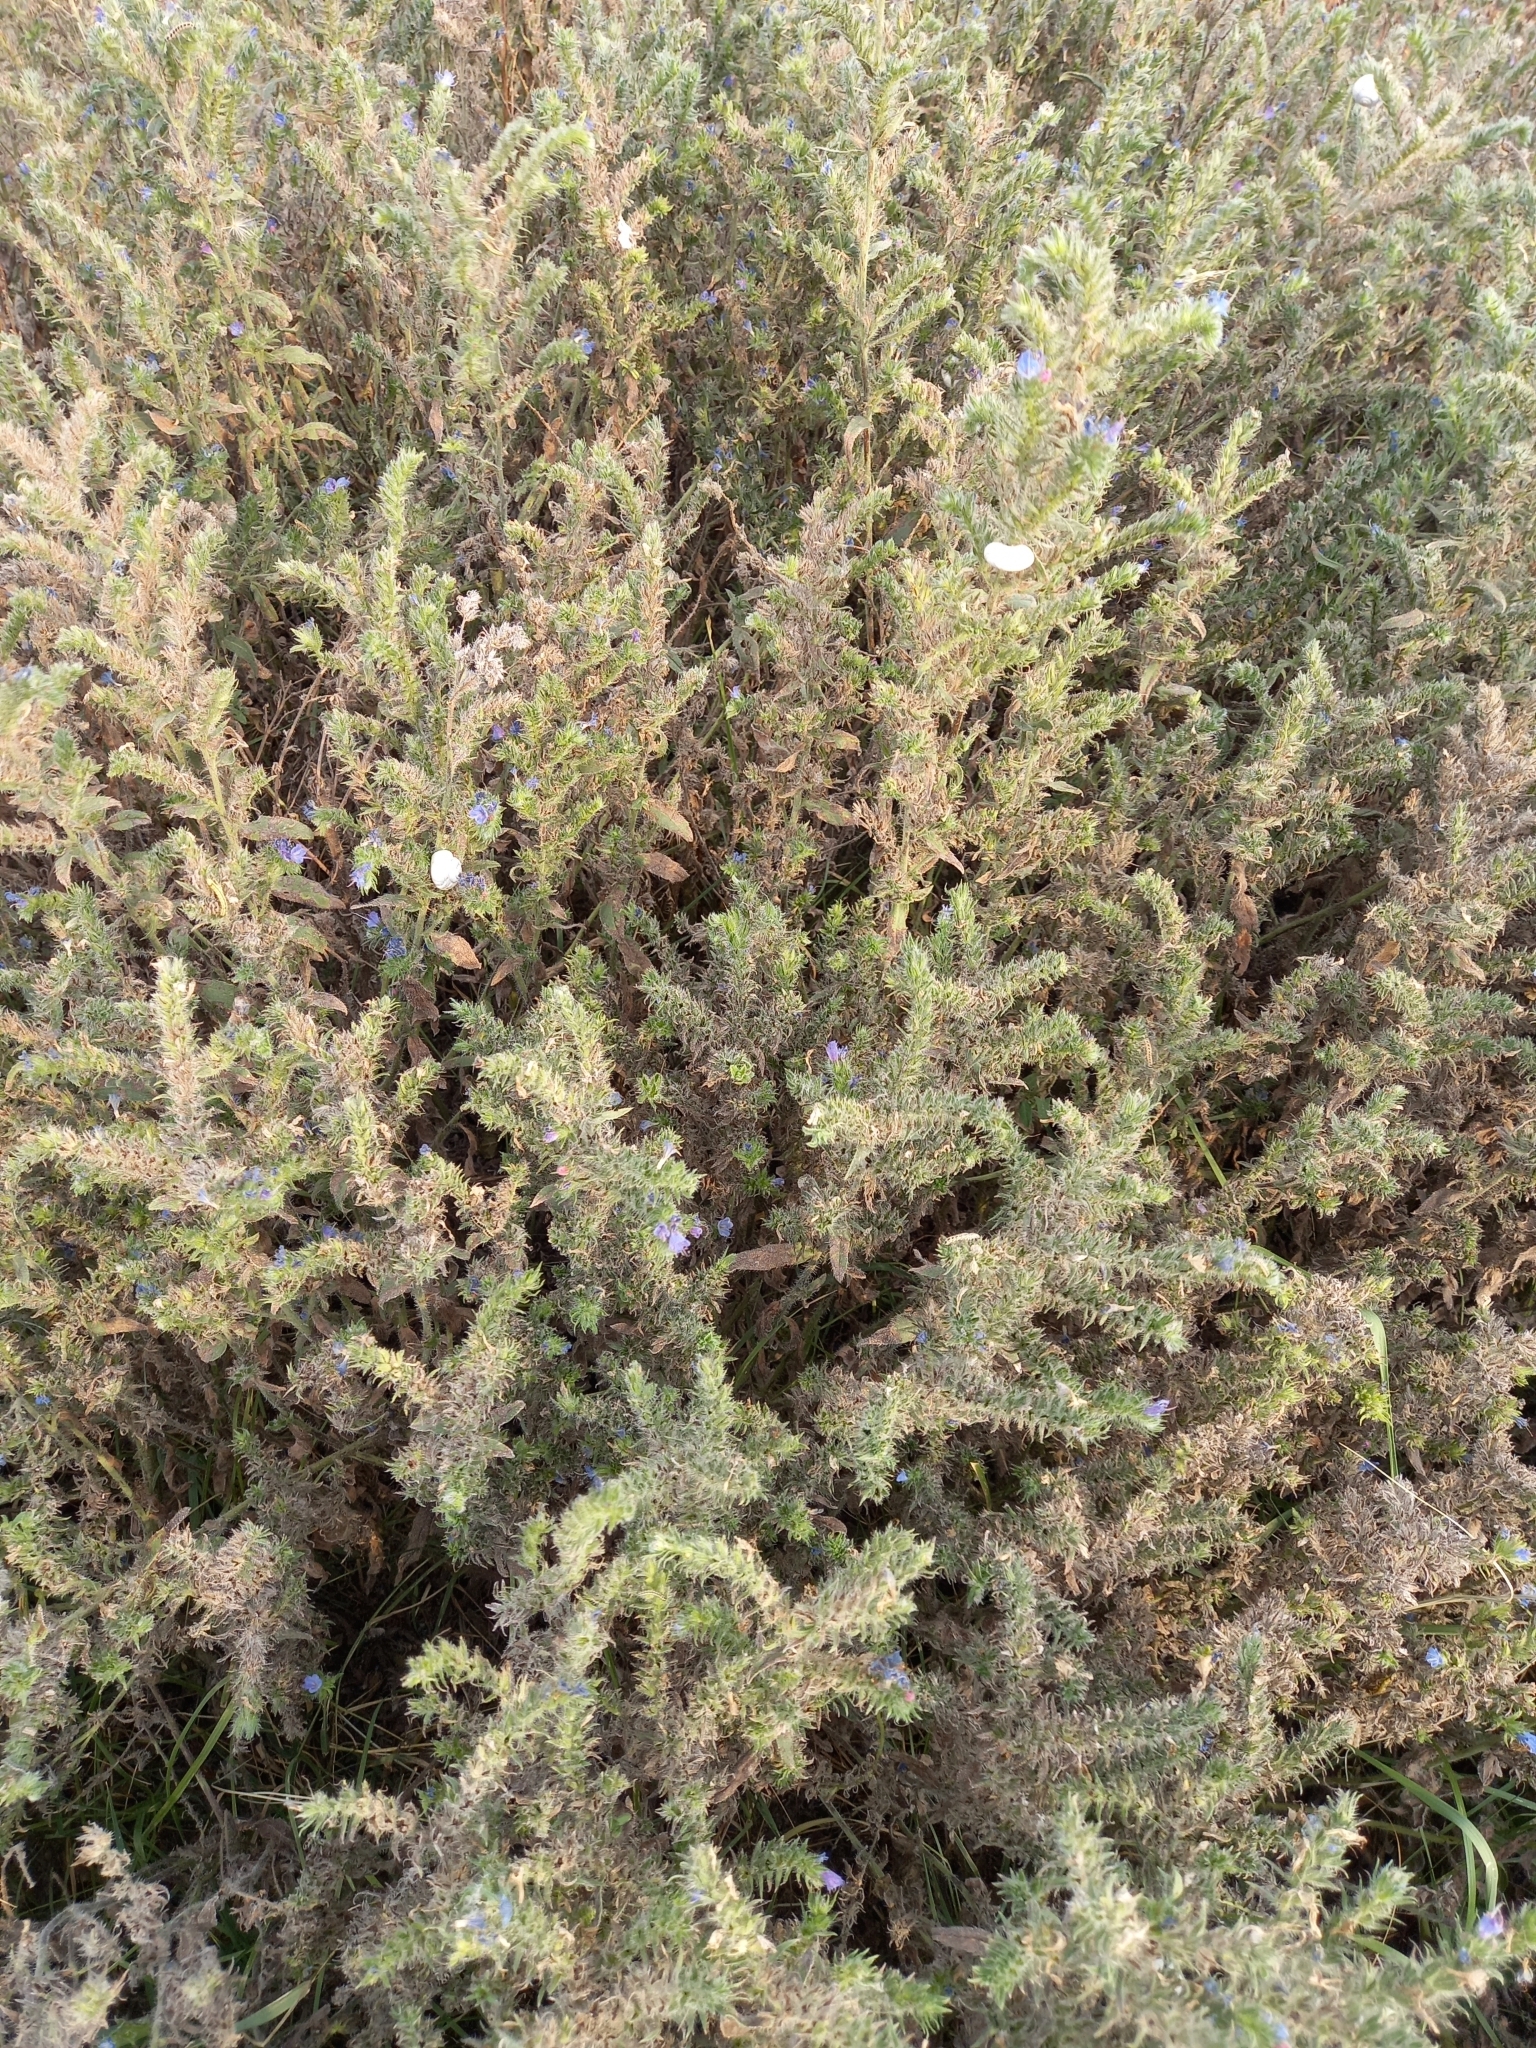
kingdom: Plantae
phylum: Tracheophyta
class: Magnoliopsida
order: Boraginales
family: Boraginaceae
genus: Echium
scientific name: Echium vulgare
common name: Common viper's bugloss
